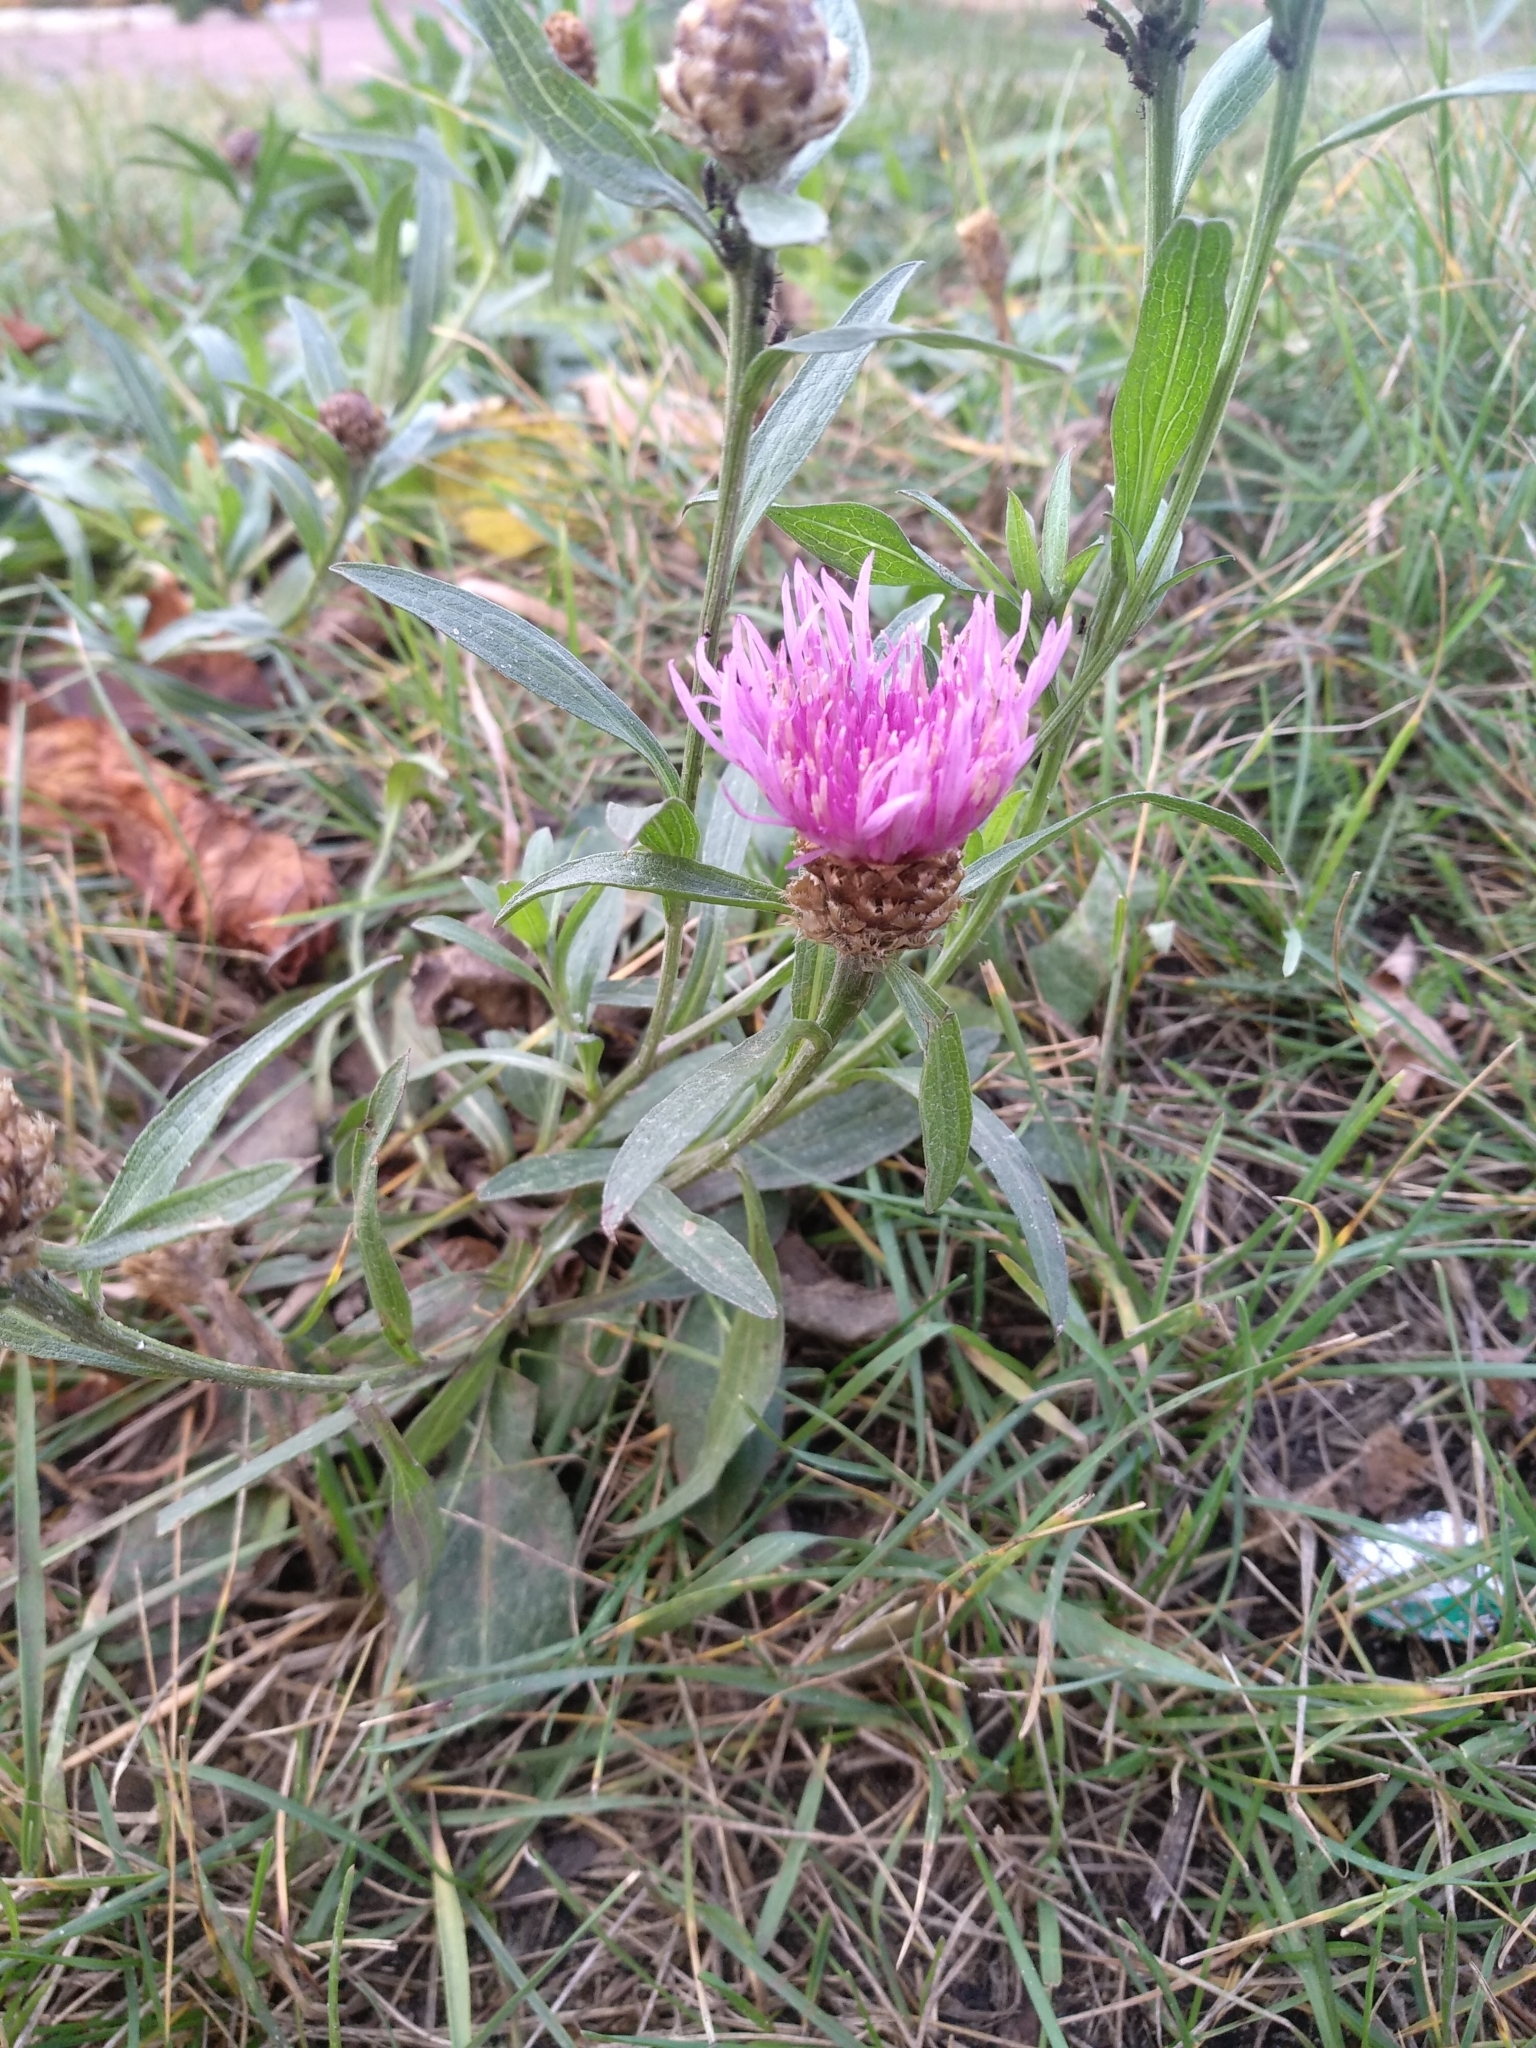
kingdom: Plantae
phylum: Tracheophyta
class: Magnoliopsida
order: Asterales
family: Asteraceae
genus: Centaurea
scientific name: Centaurea jacea
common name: Brown knapweed
